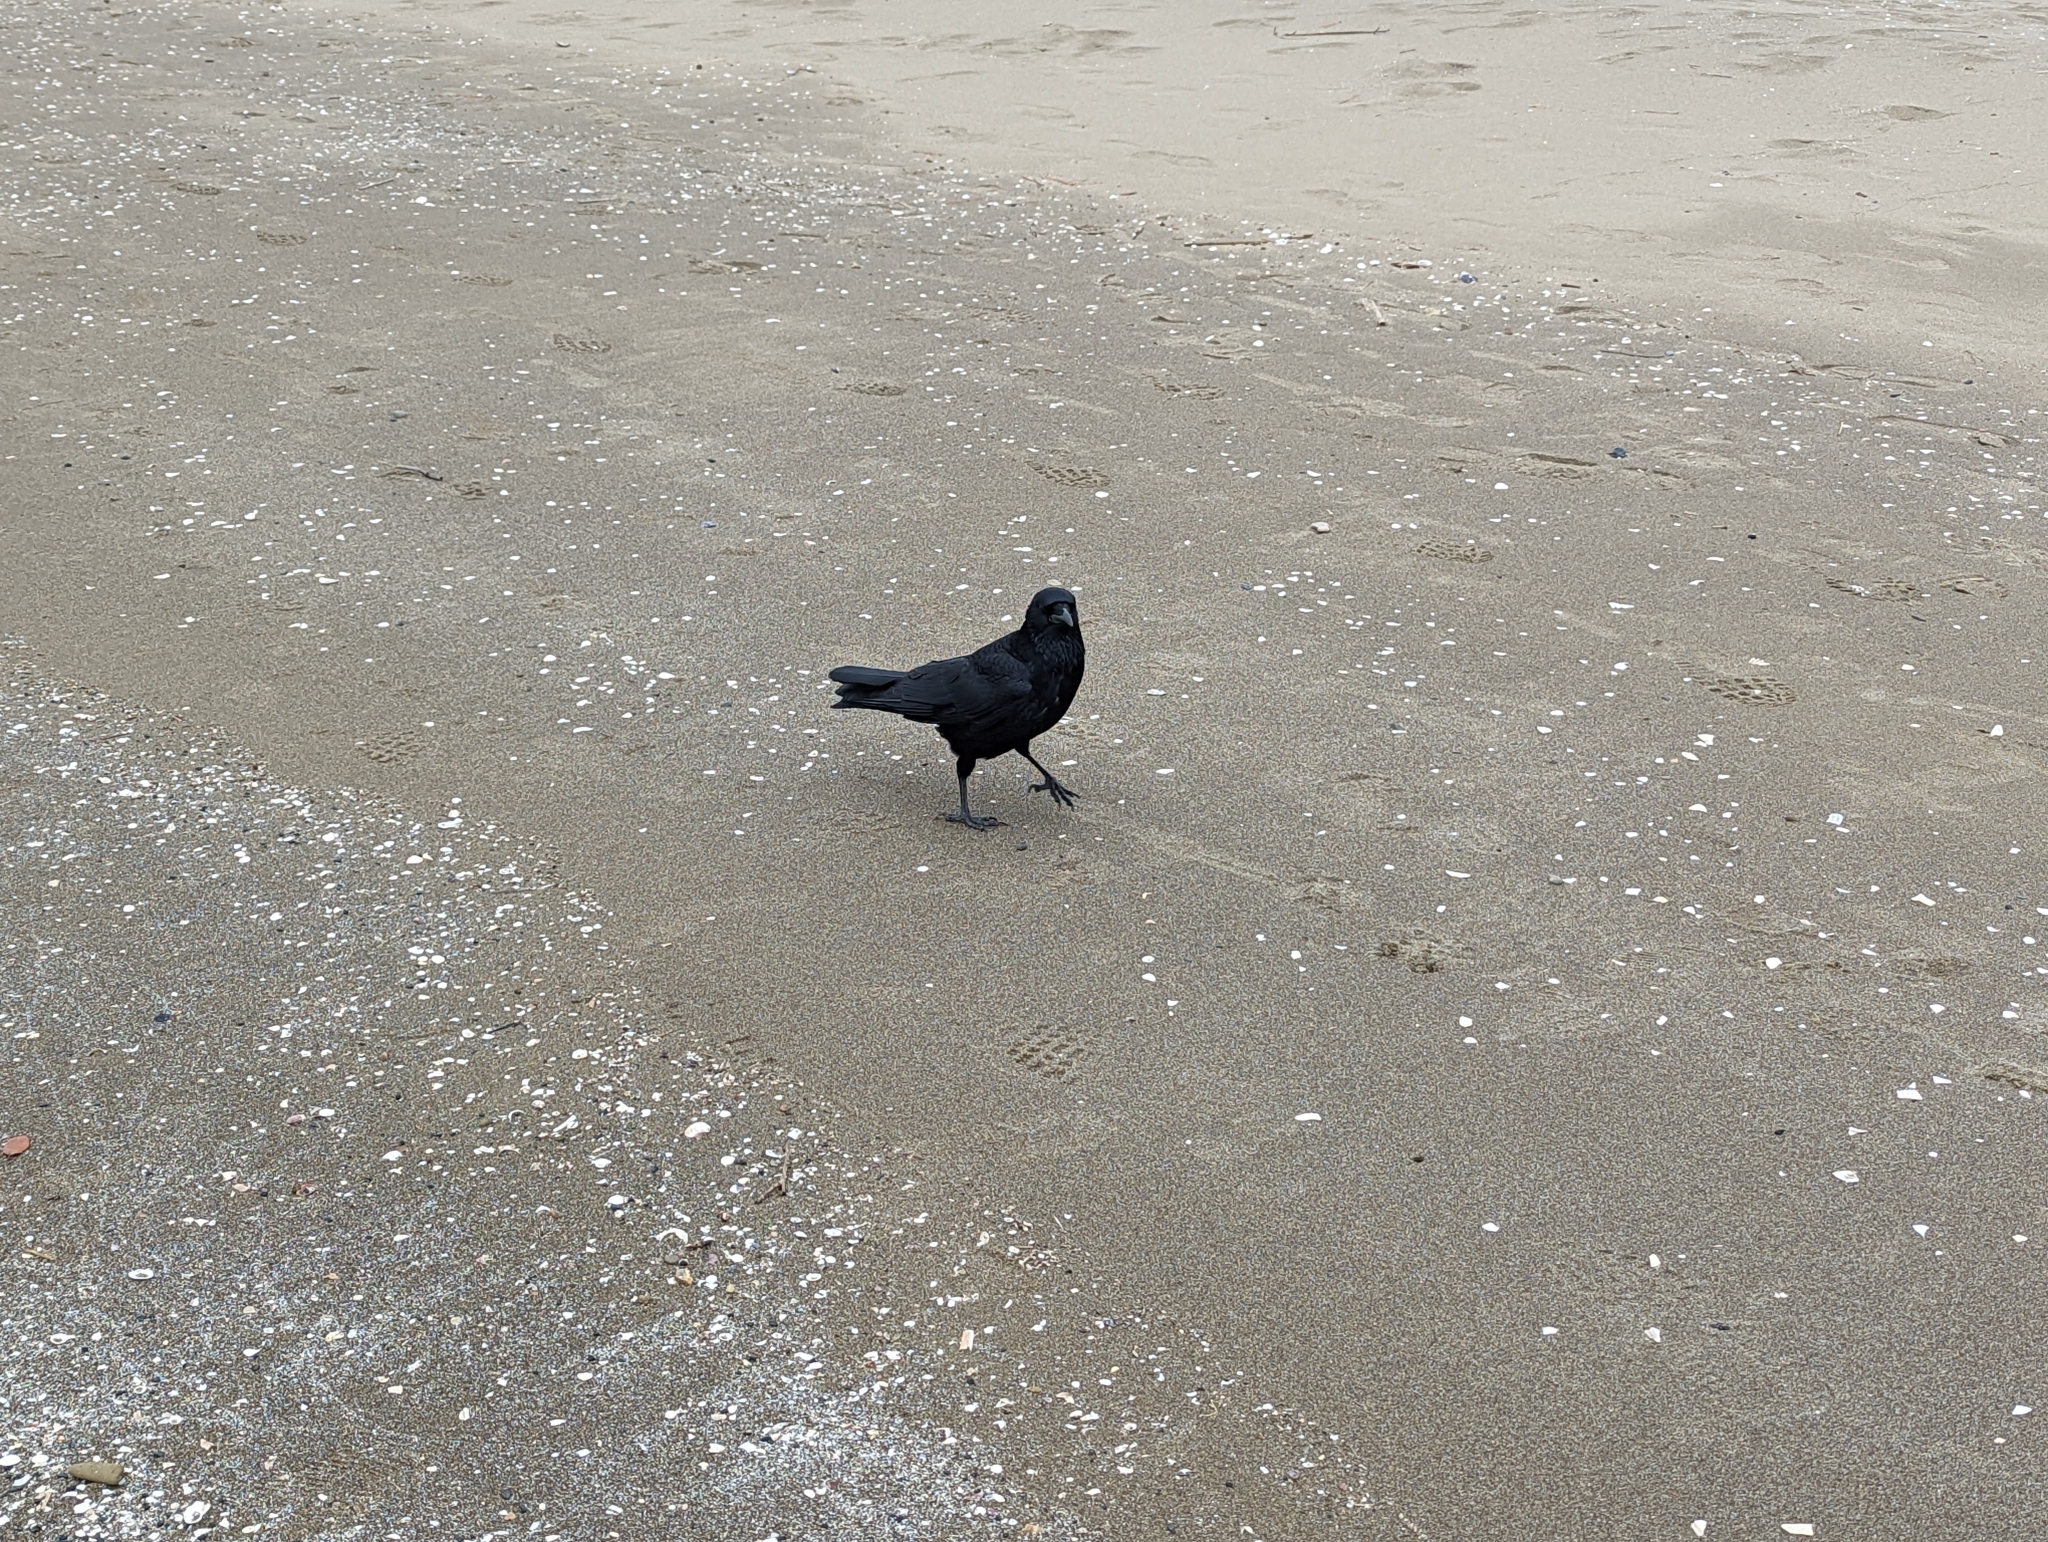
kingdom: Animalia
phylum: Chordata
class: Aves
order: Passeriformes
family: Corvidae
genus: Corvus
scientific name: Corvus corone
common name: Carrion crow
